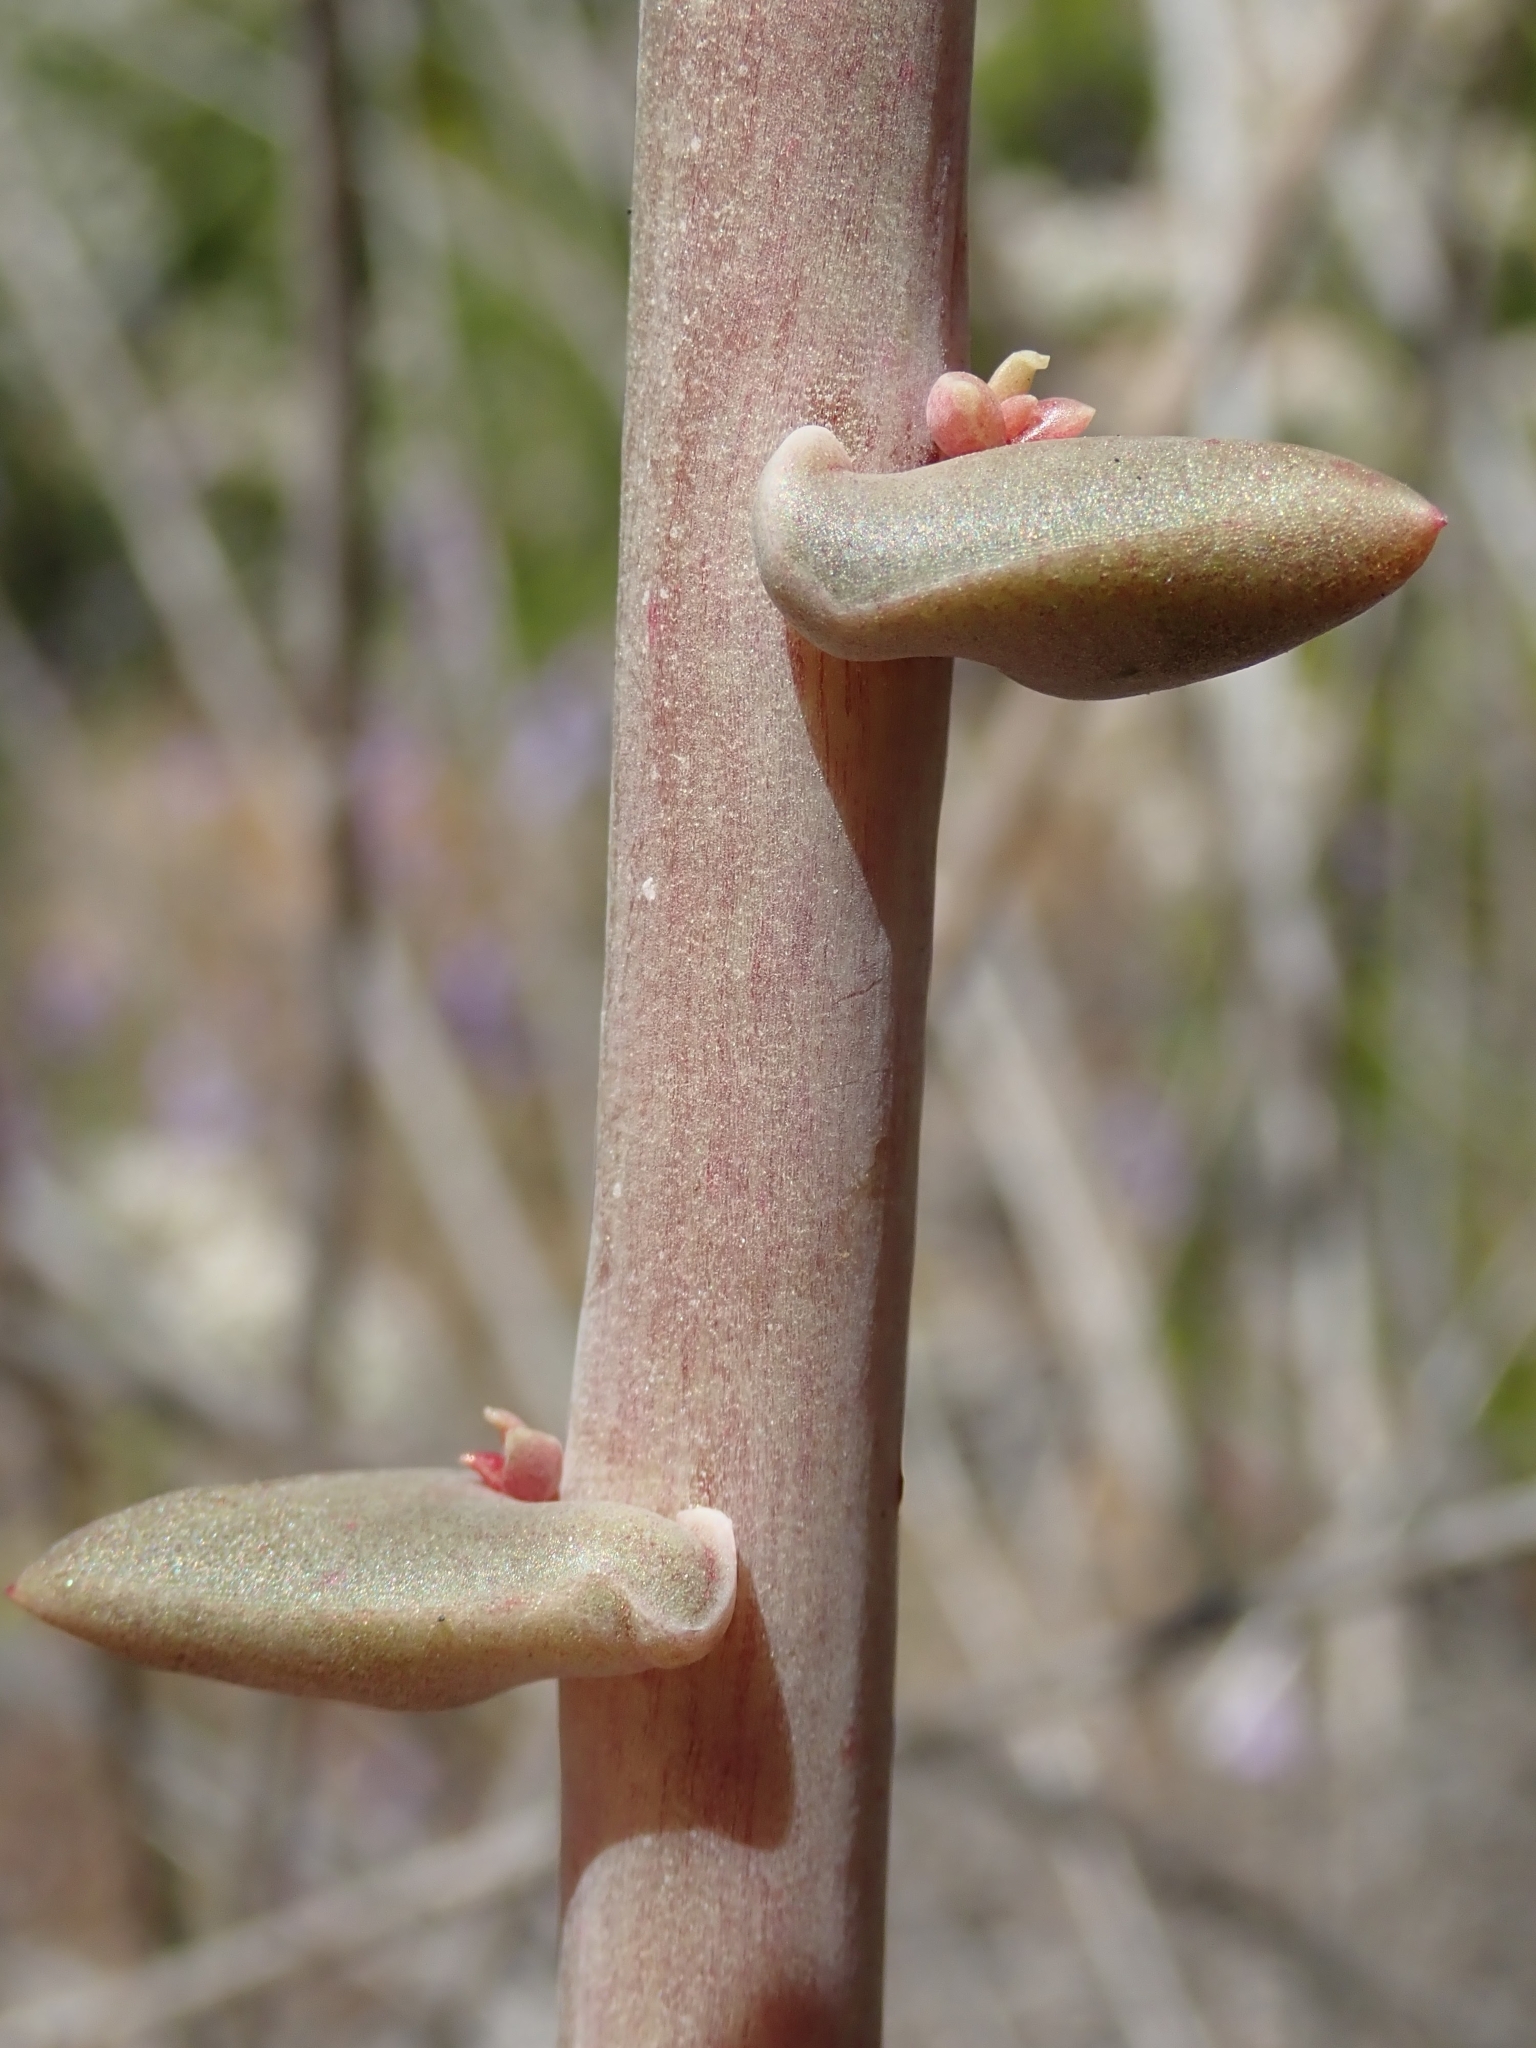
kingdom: Plantae
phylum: Tracheophyta
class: Magnoliopsida
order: Saxifragales
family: Crassulaceae
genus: Dudleya
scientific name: Dudleya lanceolata
